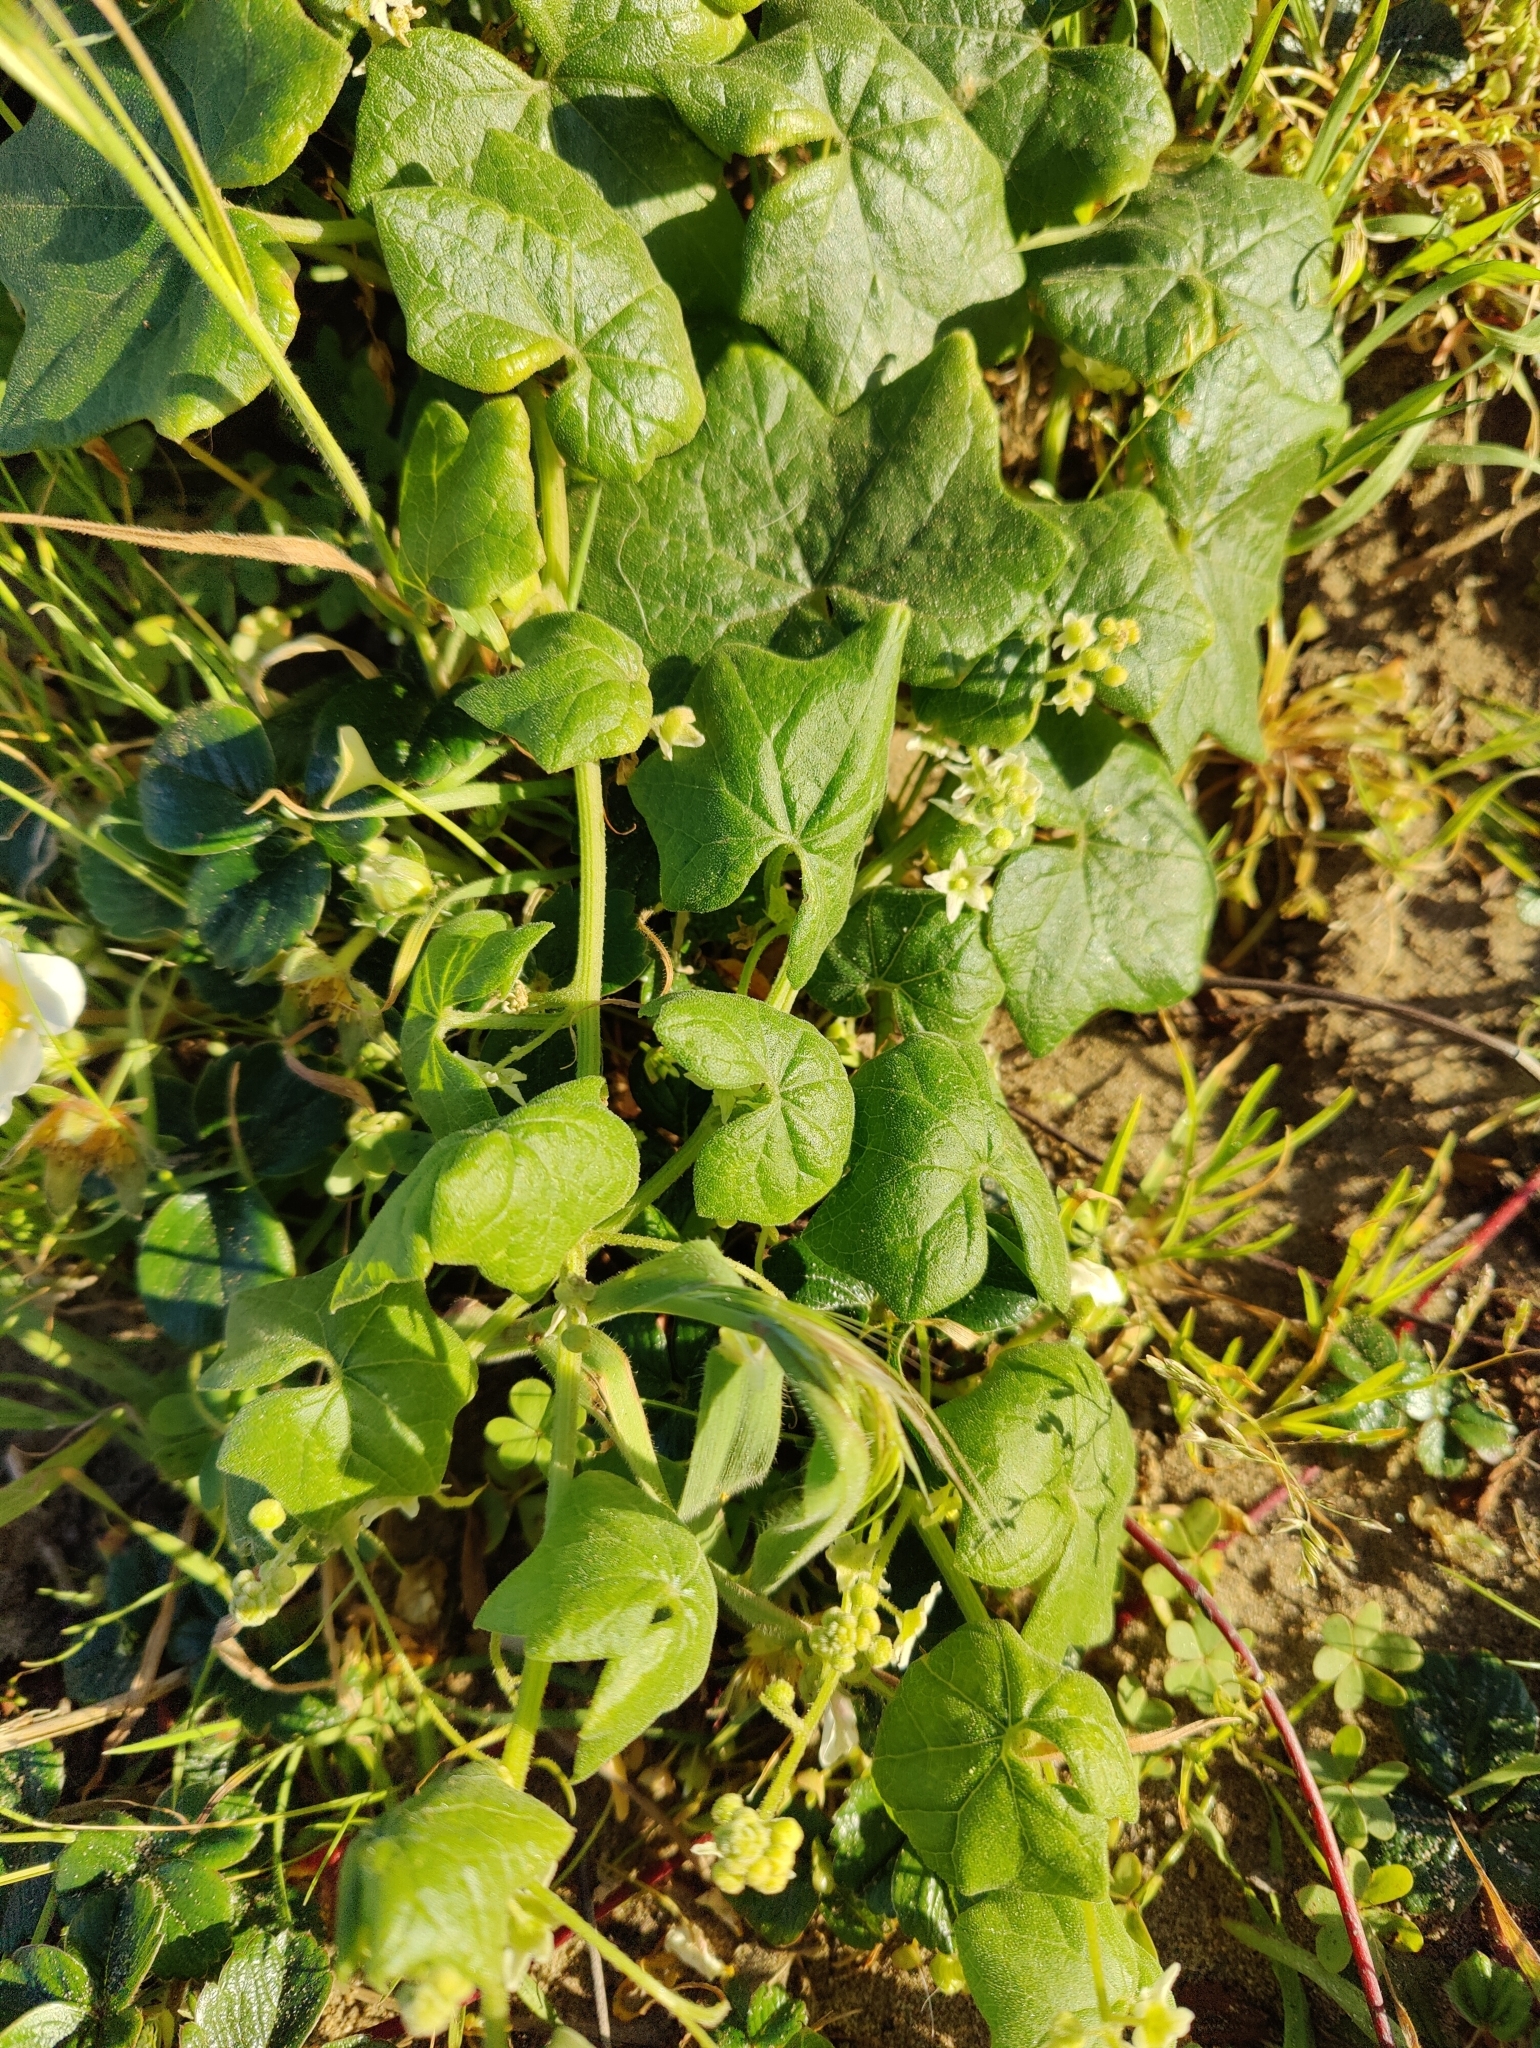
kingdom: Plantae
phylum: Tracheophyta
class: Magnoliopsida
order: Cucurbitales
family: Cucurbitaceae
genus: Marah
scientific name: Marah fabacea
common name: California manroot
